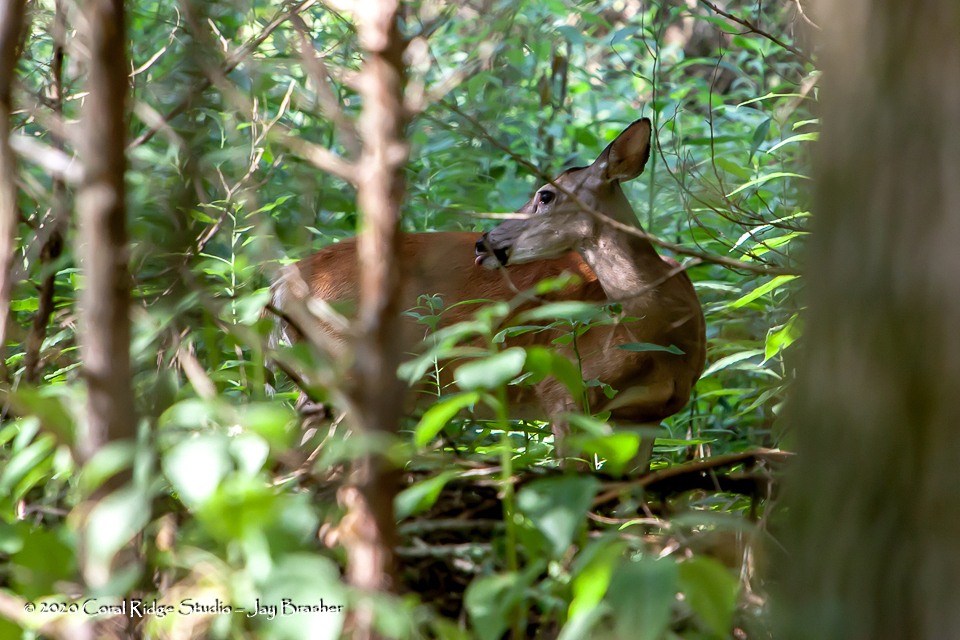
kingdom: Animalia
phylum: Chordata
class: Mammalia
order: Artiodactyla
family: Cervidae
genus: Odocoileus
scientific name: Odocoileus virginianus
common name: White-tailed deer
